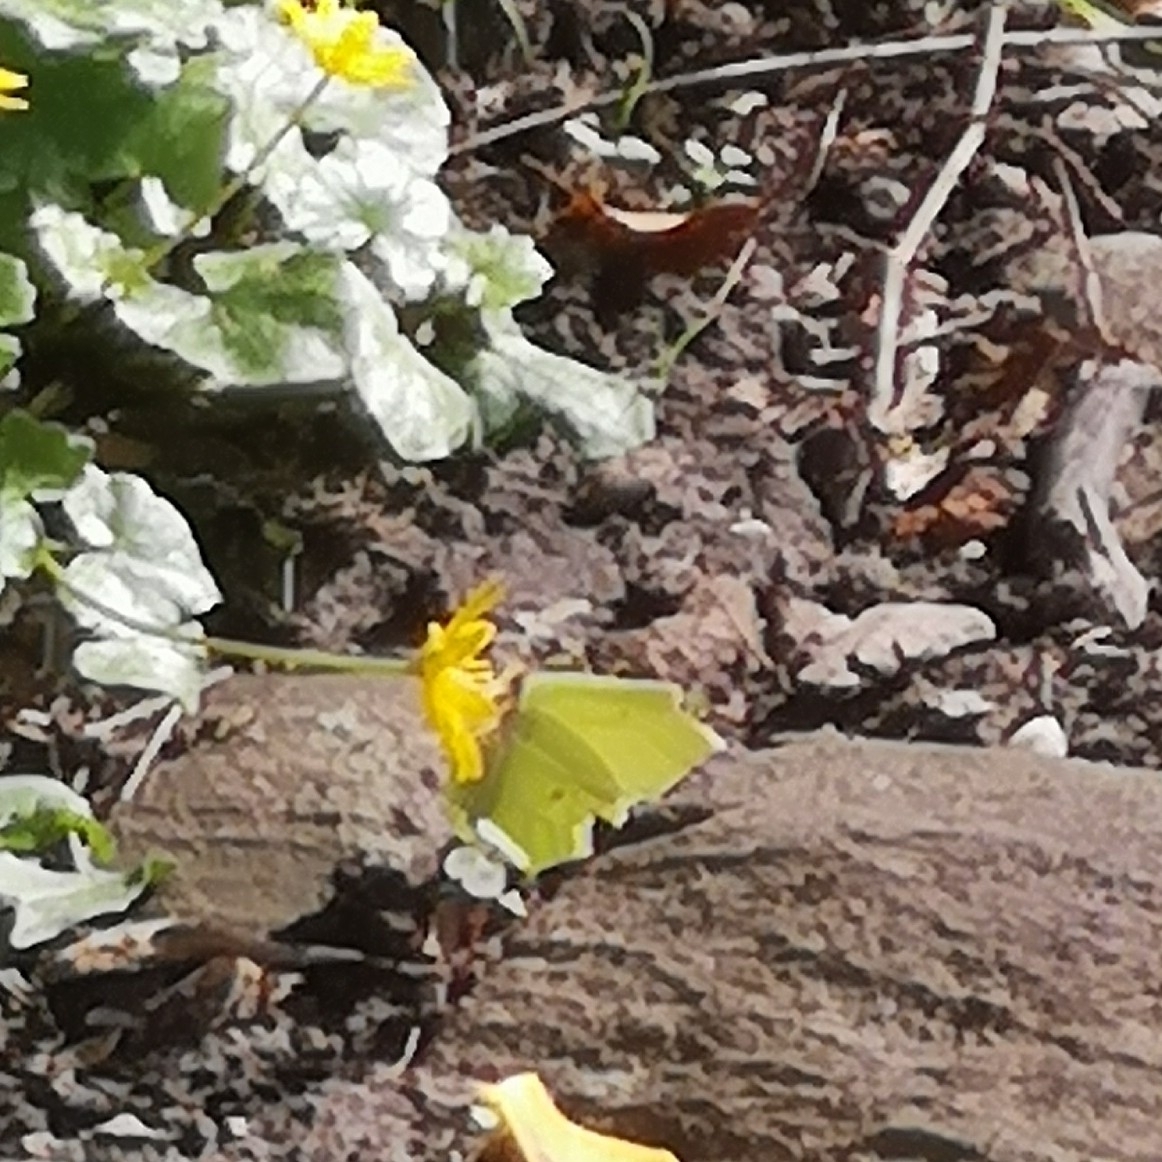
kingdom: Animalia
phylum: Arthropoda
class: Insecta
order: Lepidoptera
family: Pieridae
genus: Gonepteryx
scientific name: Gonepteryx rhamni
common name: Brimstone
